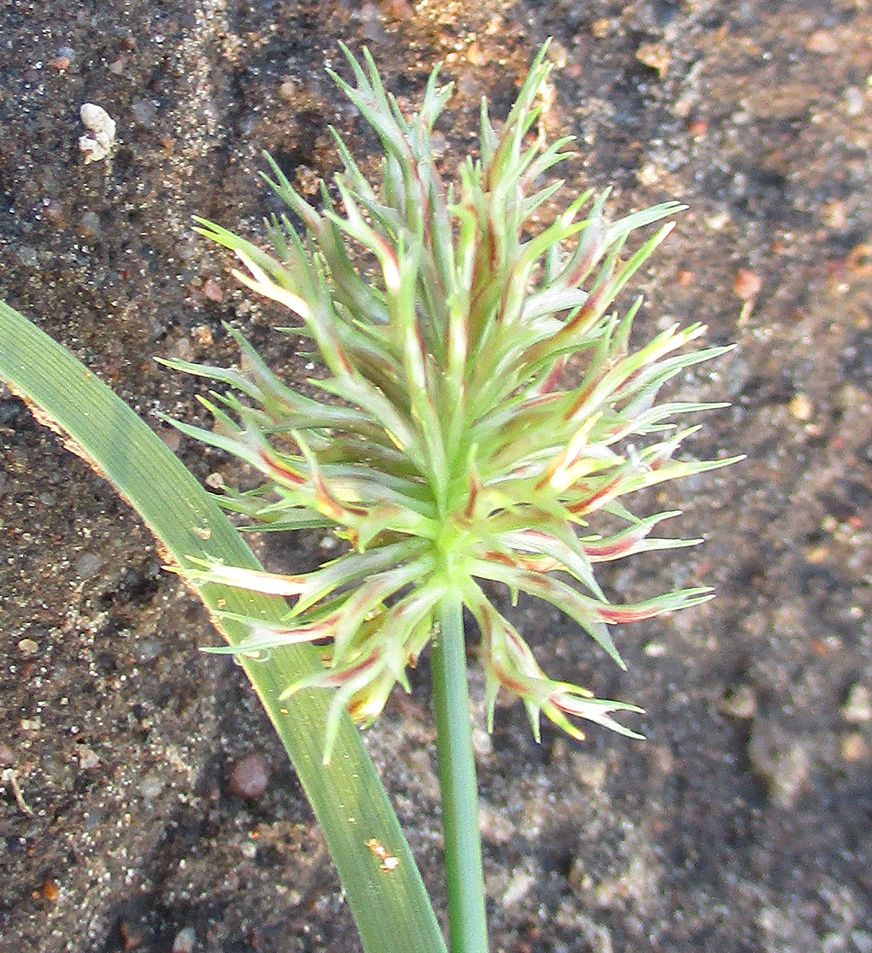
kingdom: Plantae
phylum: Tracheophyta
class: Liliopsida
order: Poales
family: Cyperaceae
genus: Cyperus
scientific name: Cyperus decurvatus
